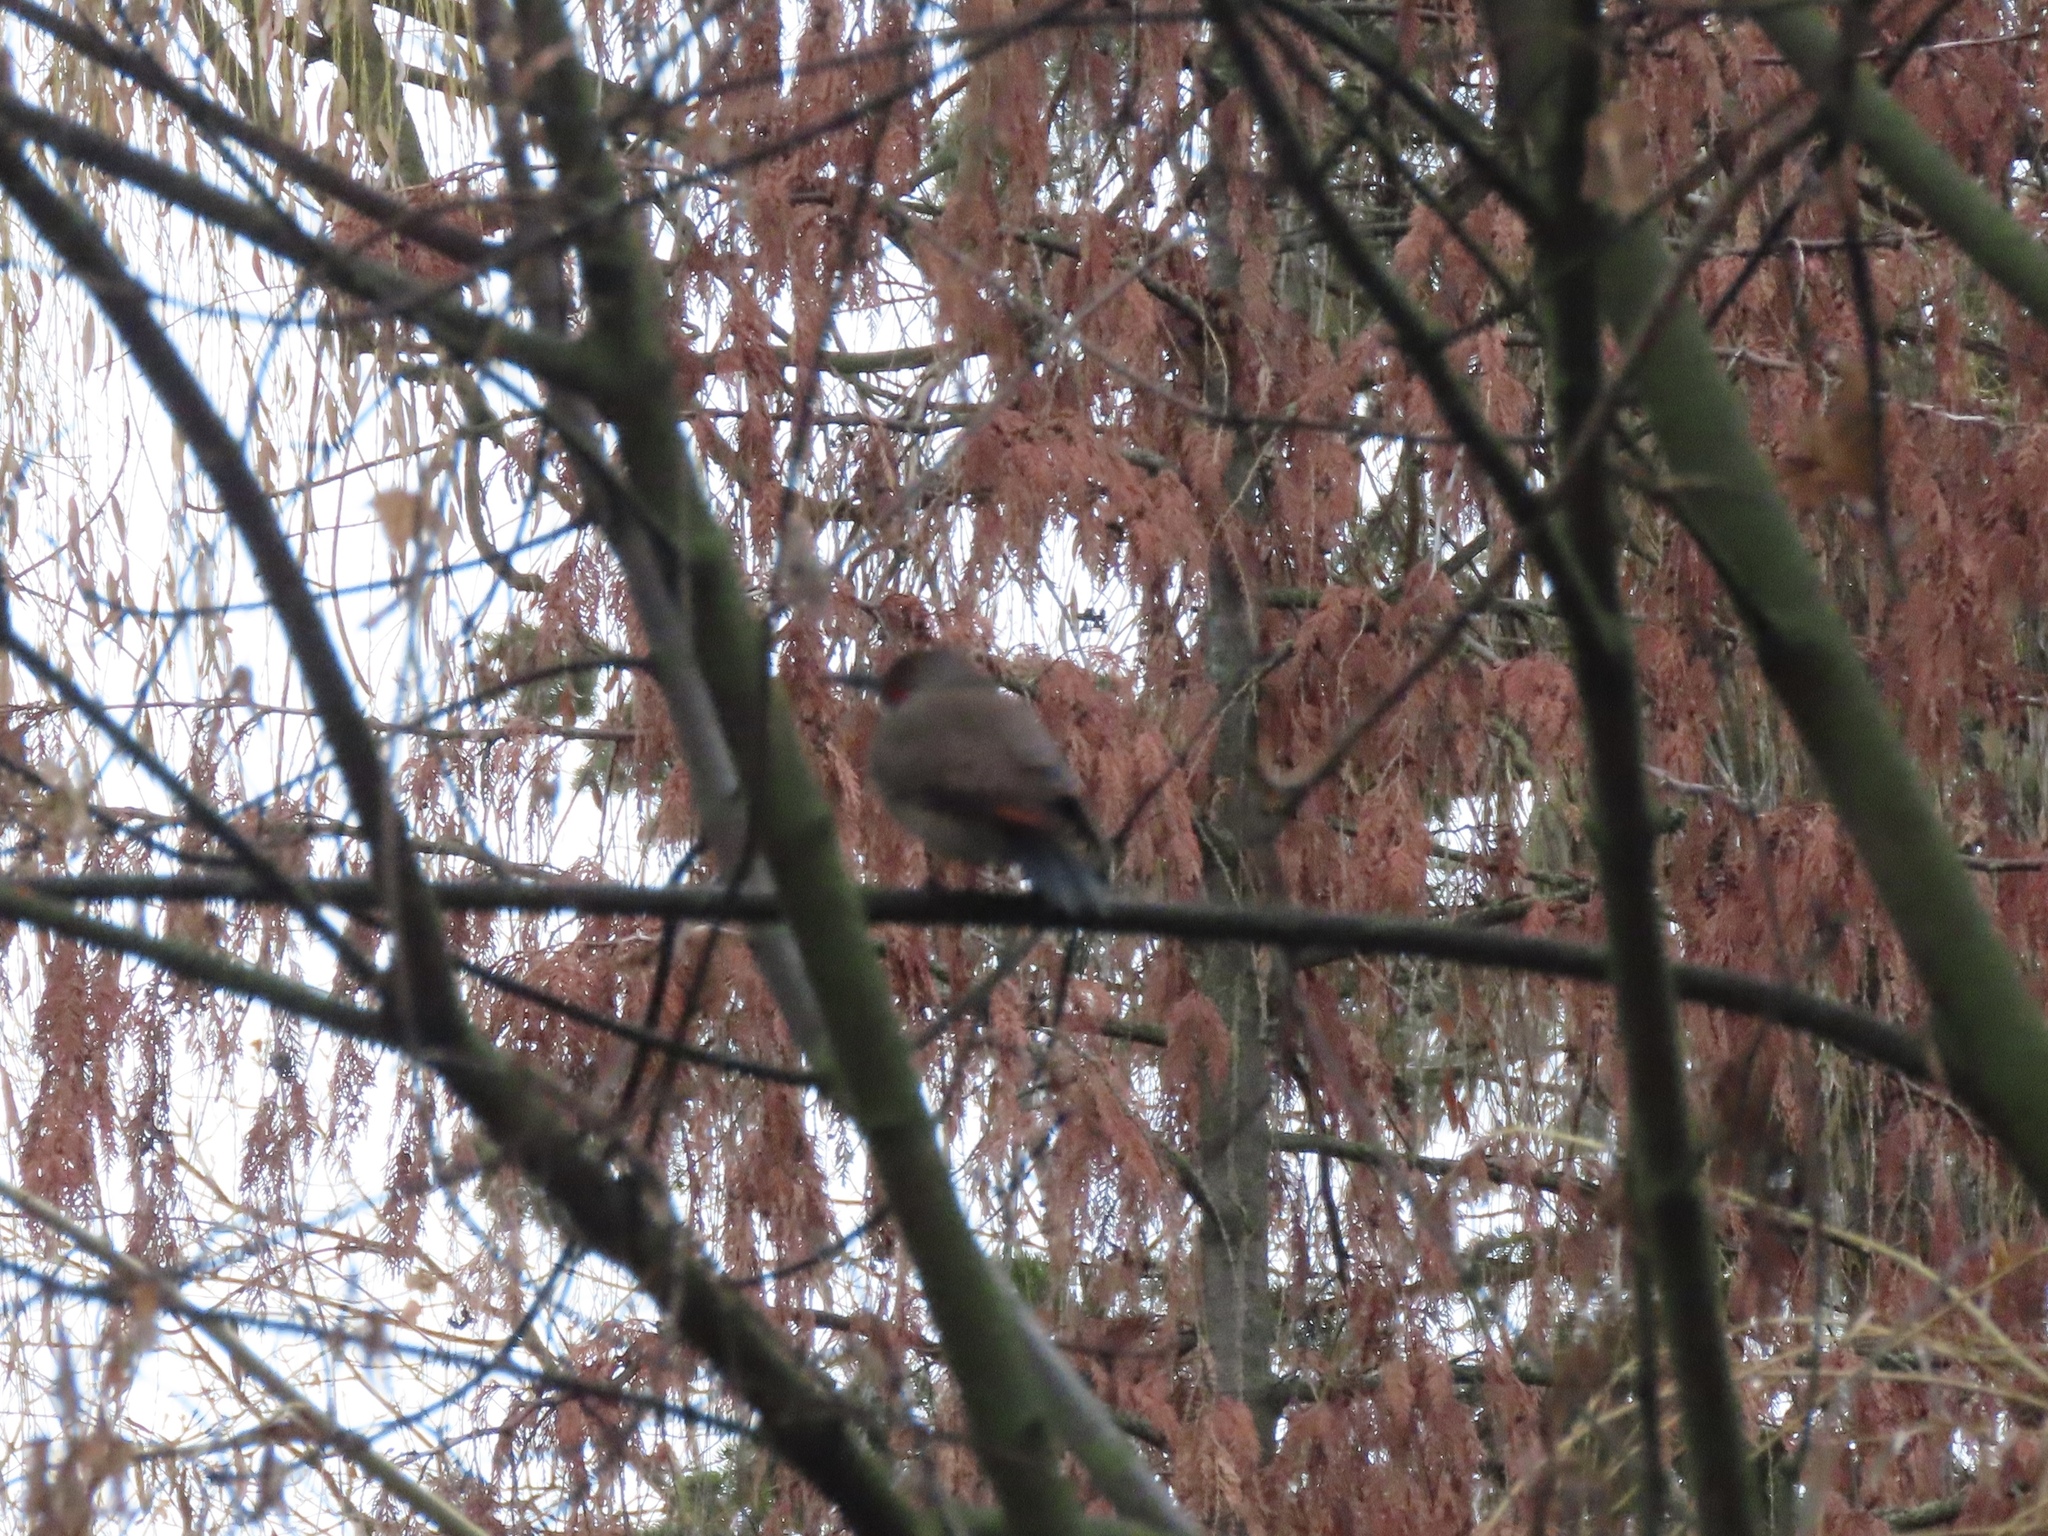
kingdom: Animalia
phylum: Chordata
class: Aves
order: Piciformes
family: Picidae
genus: Colaptes
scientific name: Colaptes auratus
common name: Northern flicker
